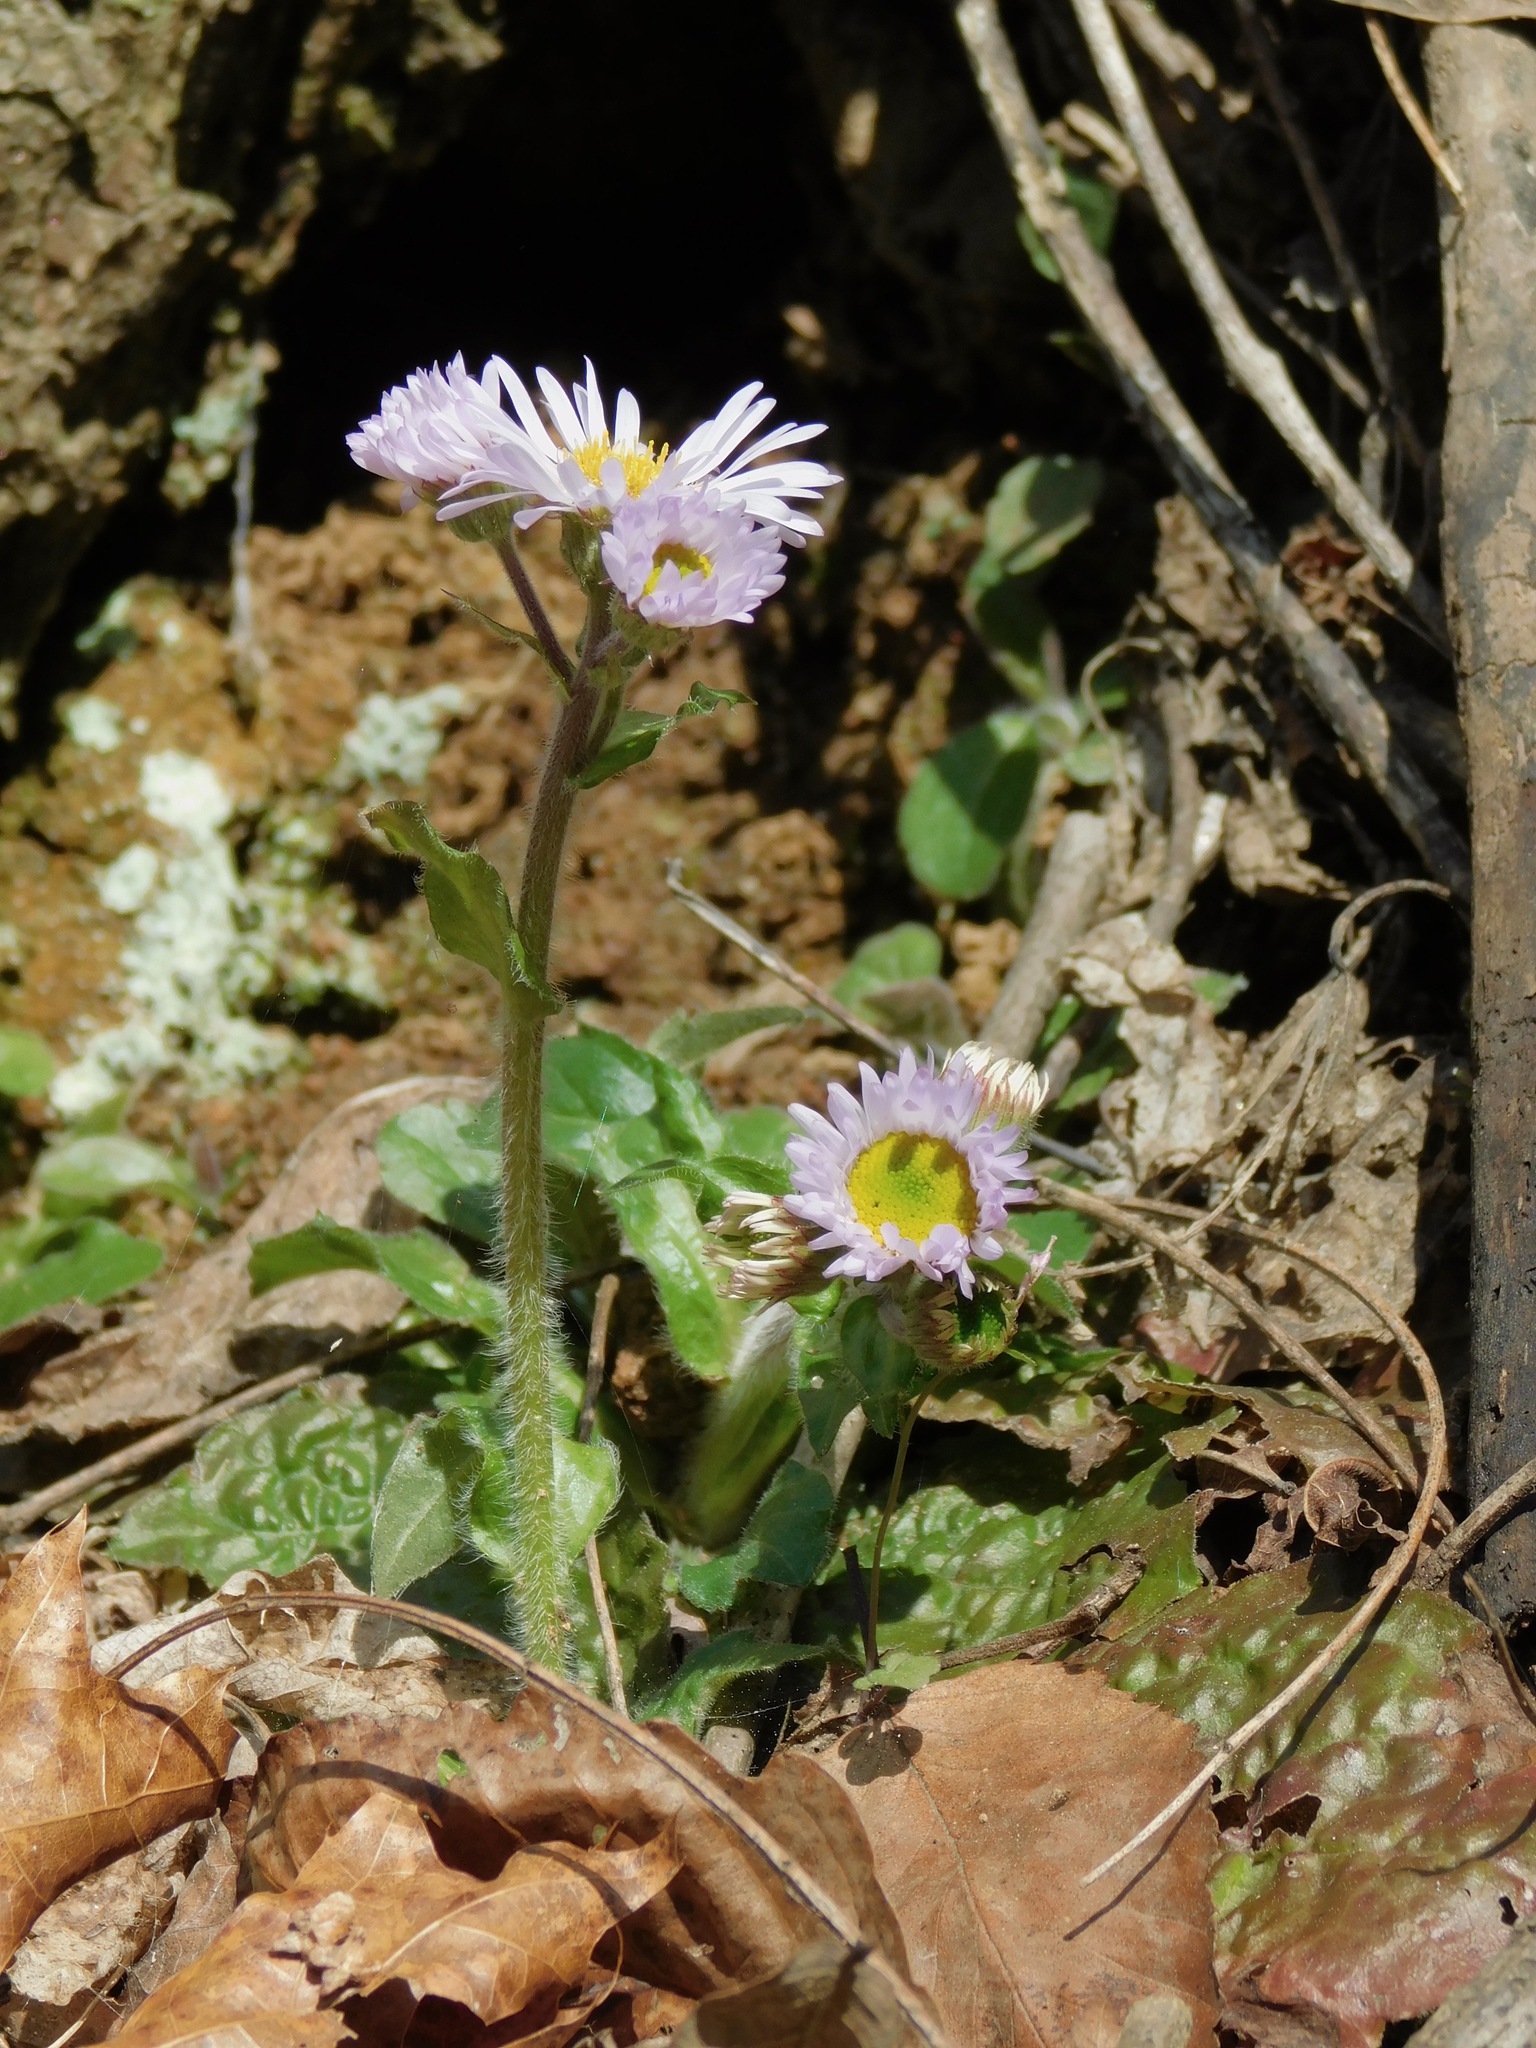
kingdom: Plantae
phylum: Tracheophyta
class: Magnoliopsida
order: Asterales
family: Asteraceae
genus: Erigeron
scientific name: Erigeron pulchellus
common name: Hairy fleabane
